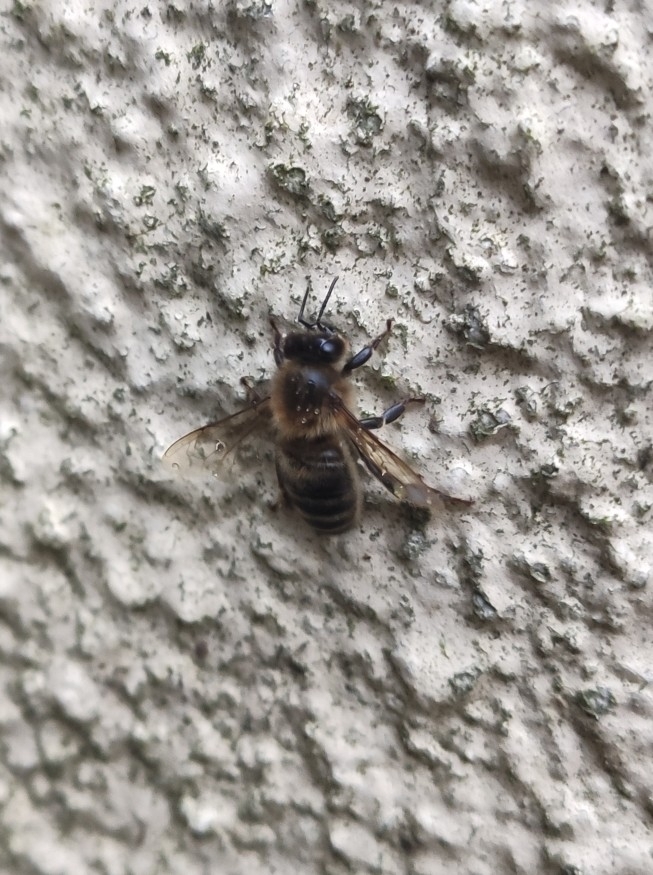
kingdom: Animalia
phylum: Arthropoda
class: Insecta
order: Hymenoptera
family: Apidae
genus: Apis
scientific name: Apis mellifera
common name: Honey bee
